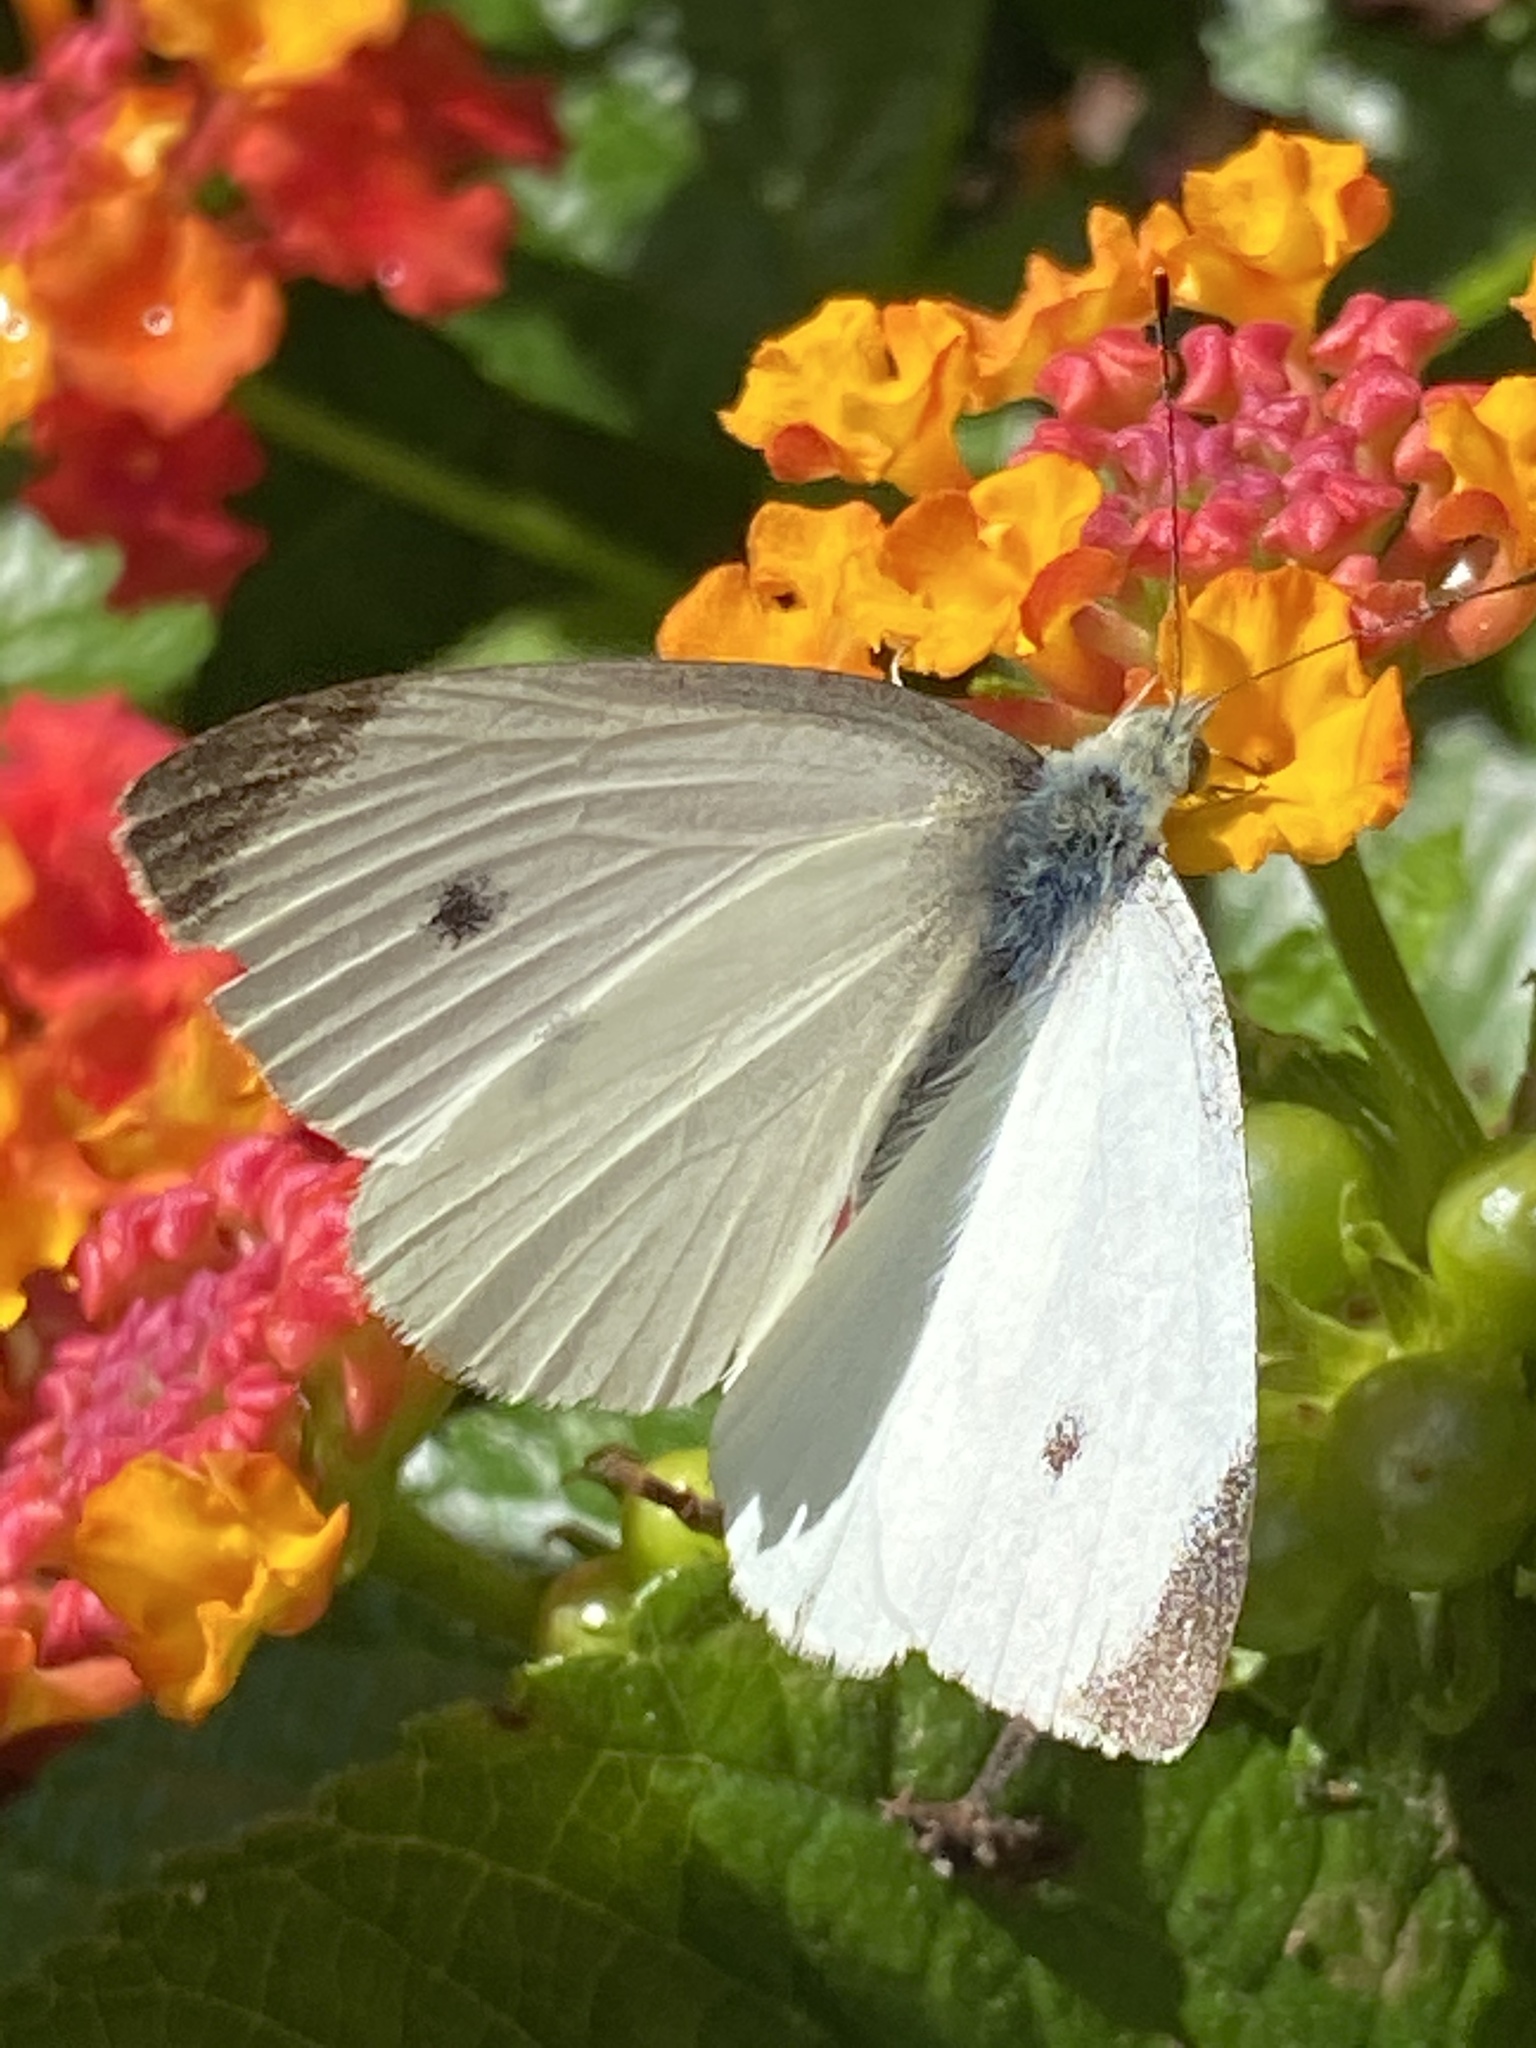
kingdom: Animalia
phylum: Arthropoda
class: Insecta
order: Lepidoptera
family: Pieridae
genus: Pieris
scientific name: Pieris rapae
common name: Small white
